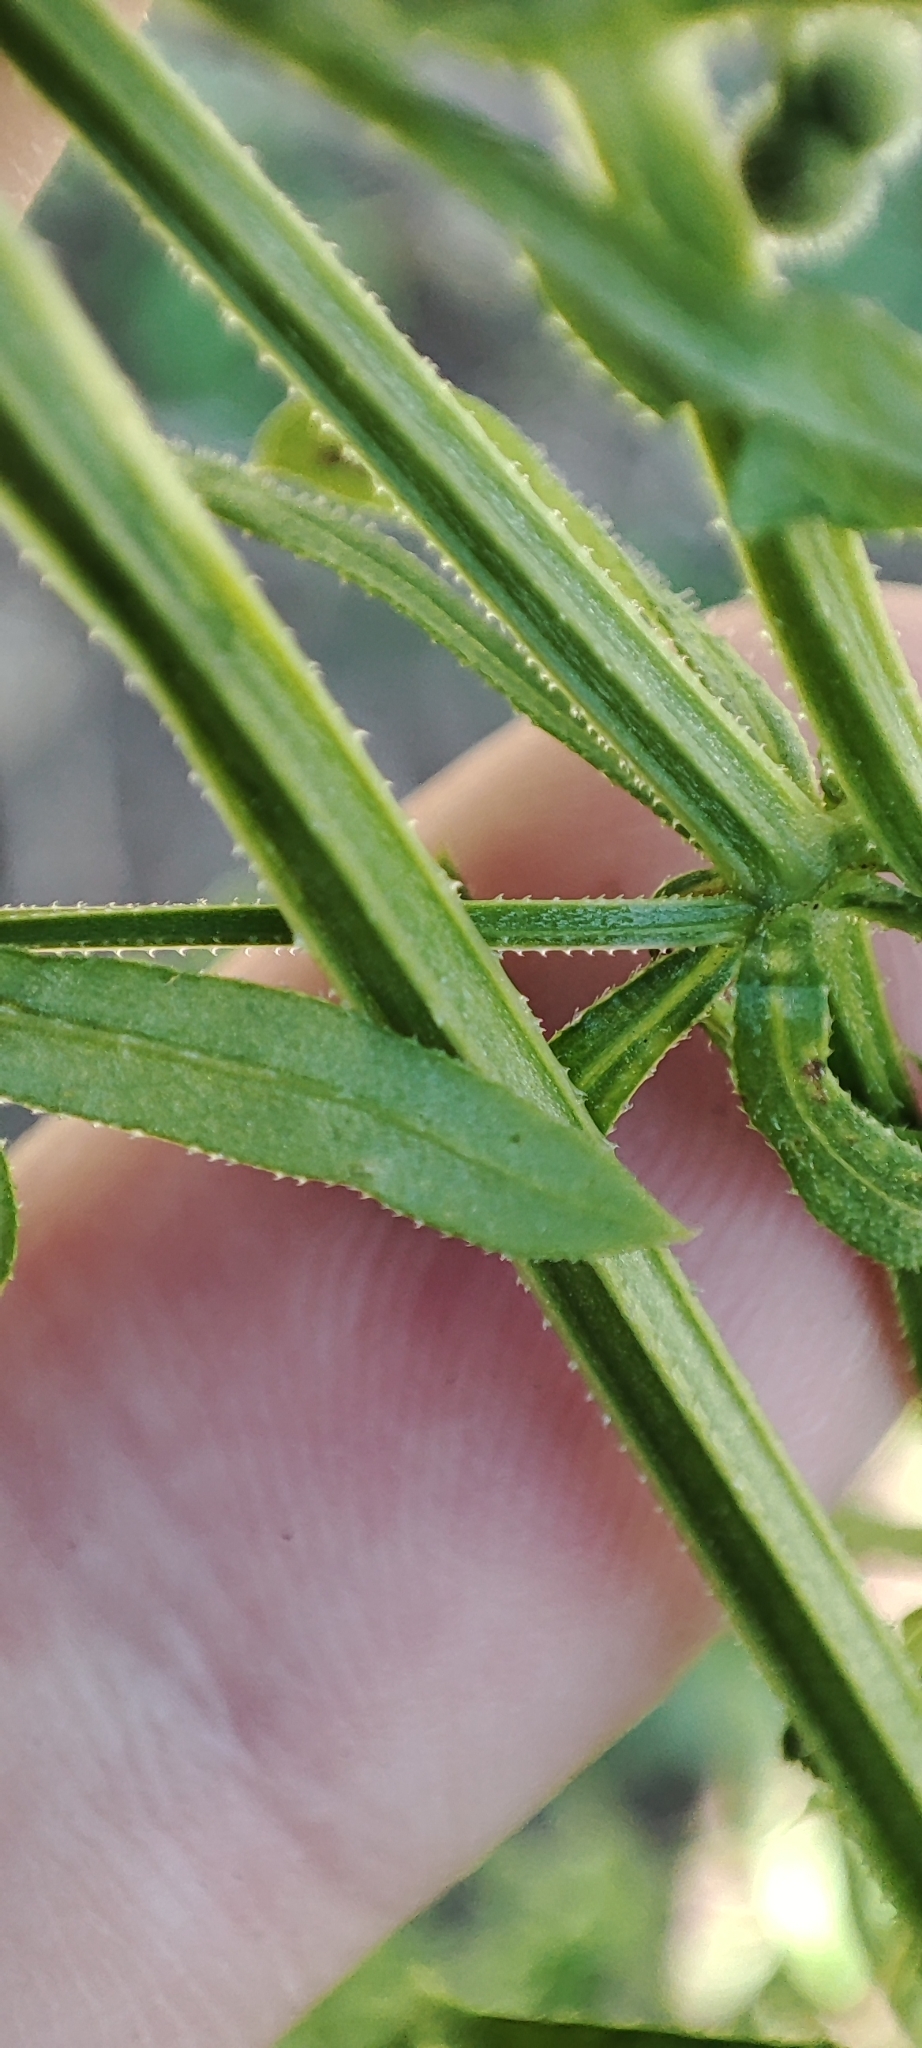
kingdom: Plantae
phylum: Tracheophyta
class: Magnoliopsida
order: Gentianales
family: Rubiaceae
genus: Galium
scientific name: Galium spurium
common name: False cleavers
